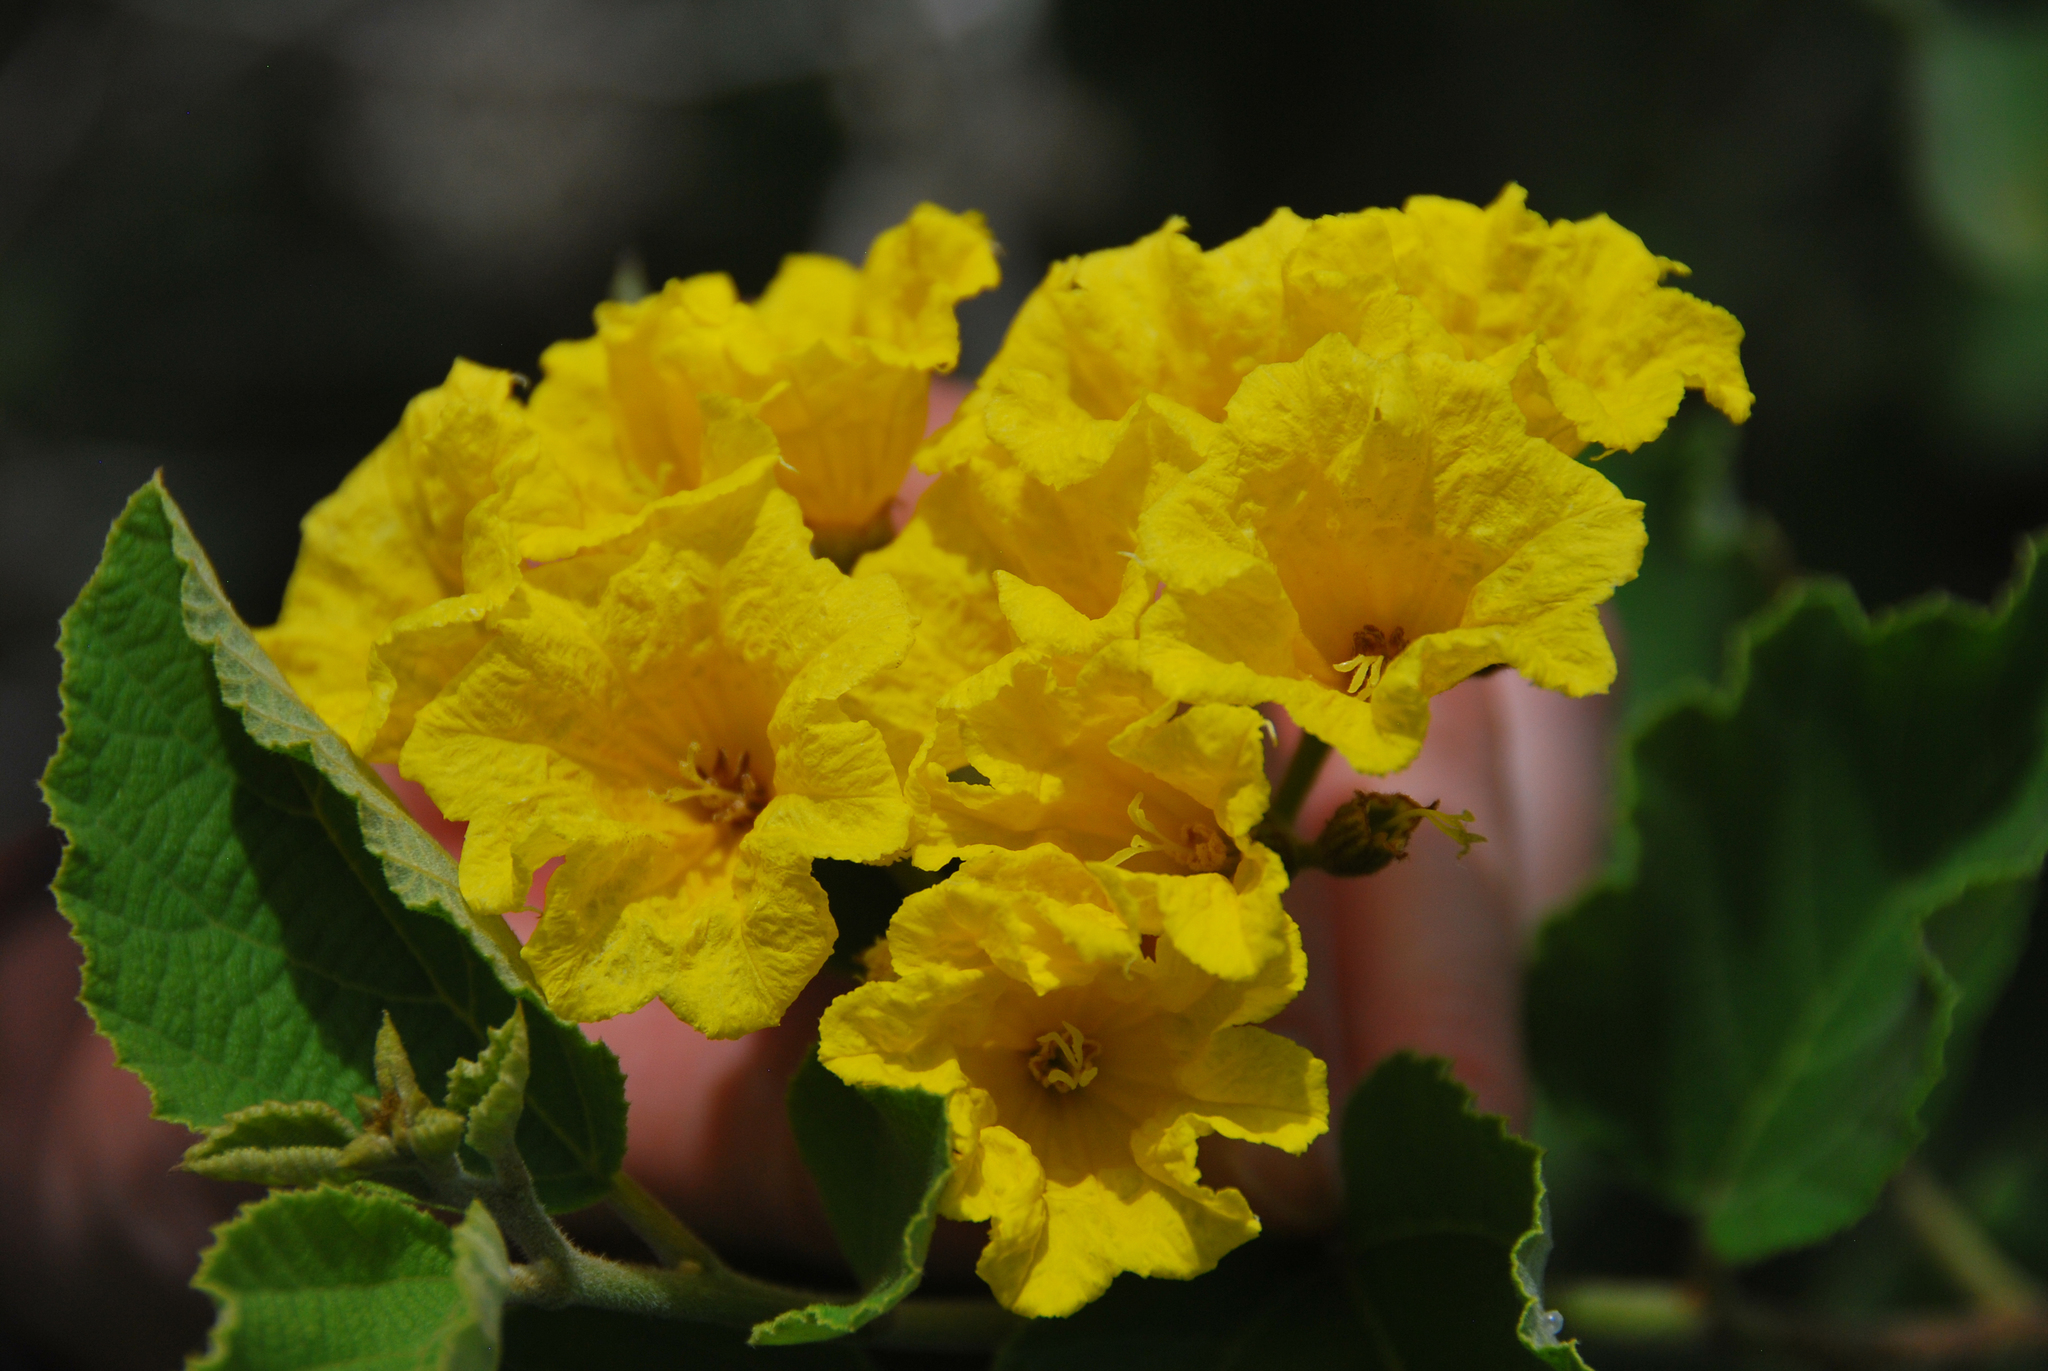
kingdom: Plantae
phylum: Tracheophyta
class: Magnoliopsida
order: Boraginales
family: Cordiaceae
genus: Cordia
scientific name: Cordia lutea
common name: Yellow geiger
